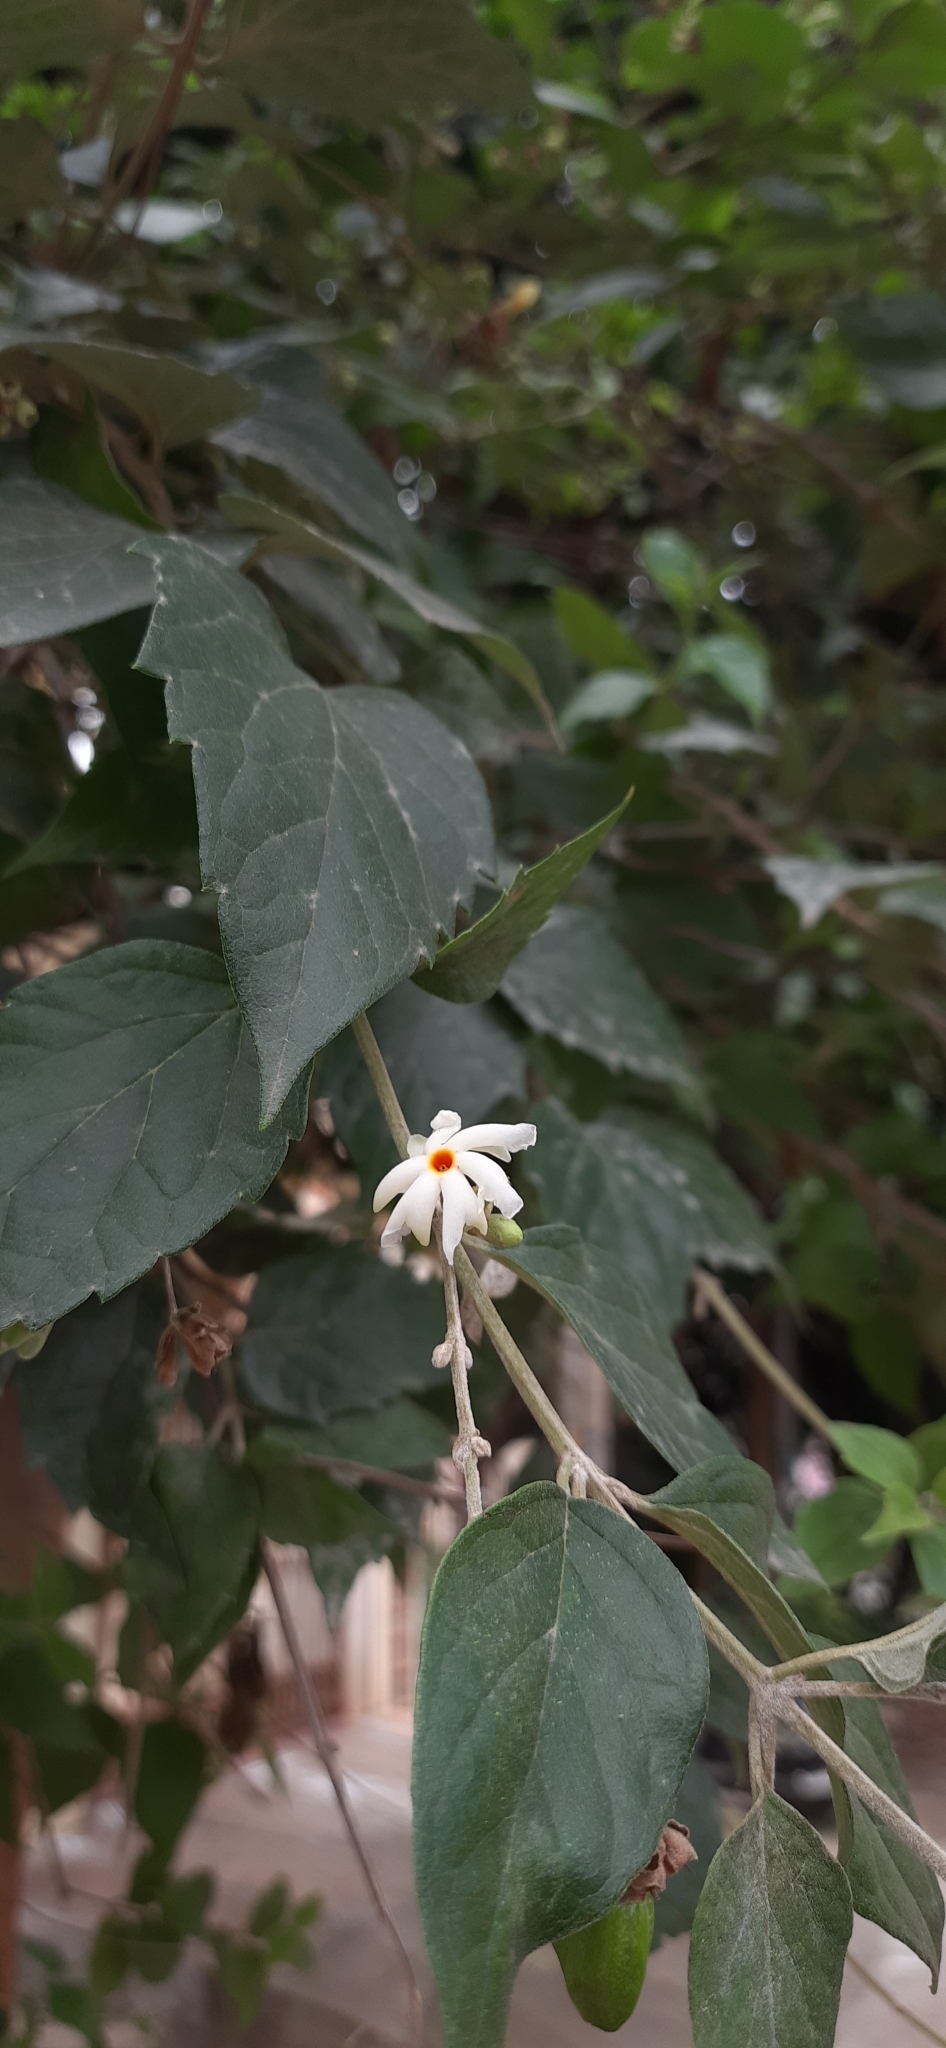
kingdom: Plantae
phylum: Tracheophyta
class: Magnoliopsida
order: Lamiales
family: Oleaceae
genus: Nyctanthes
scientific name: Nyctanthes arbor-tristis
